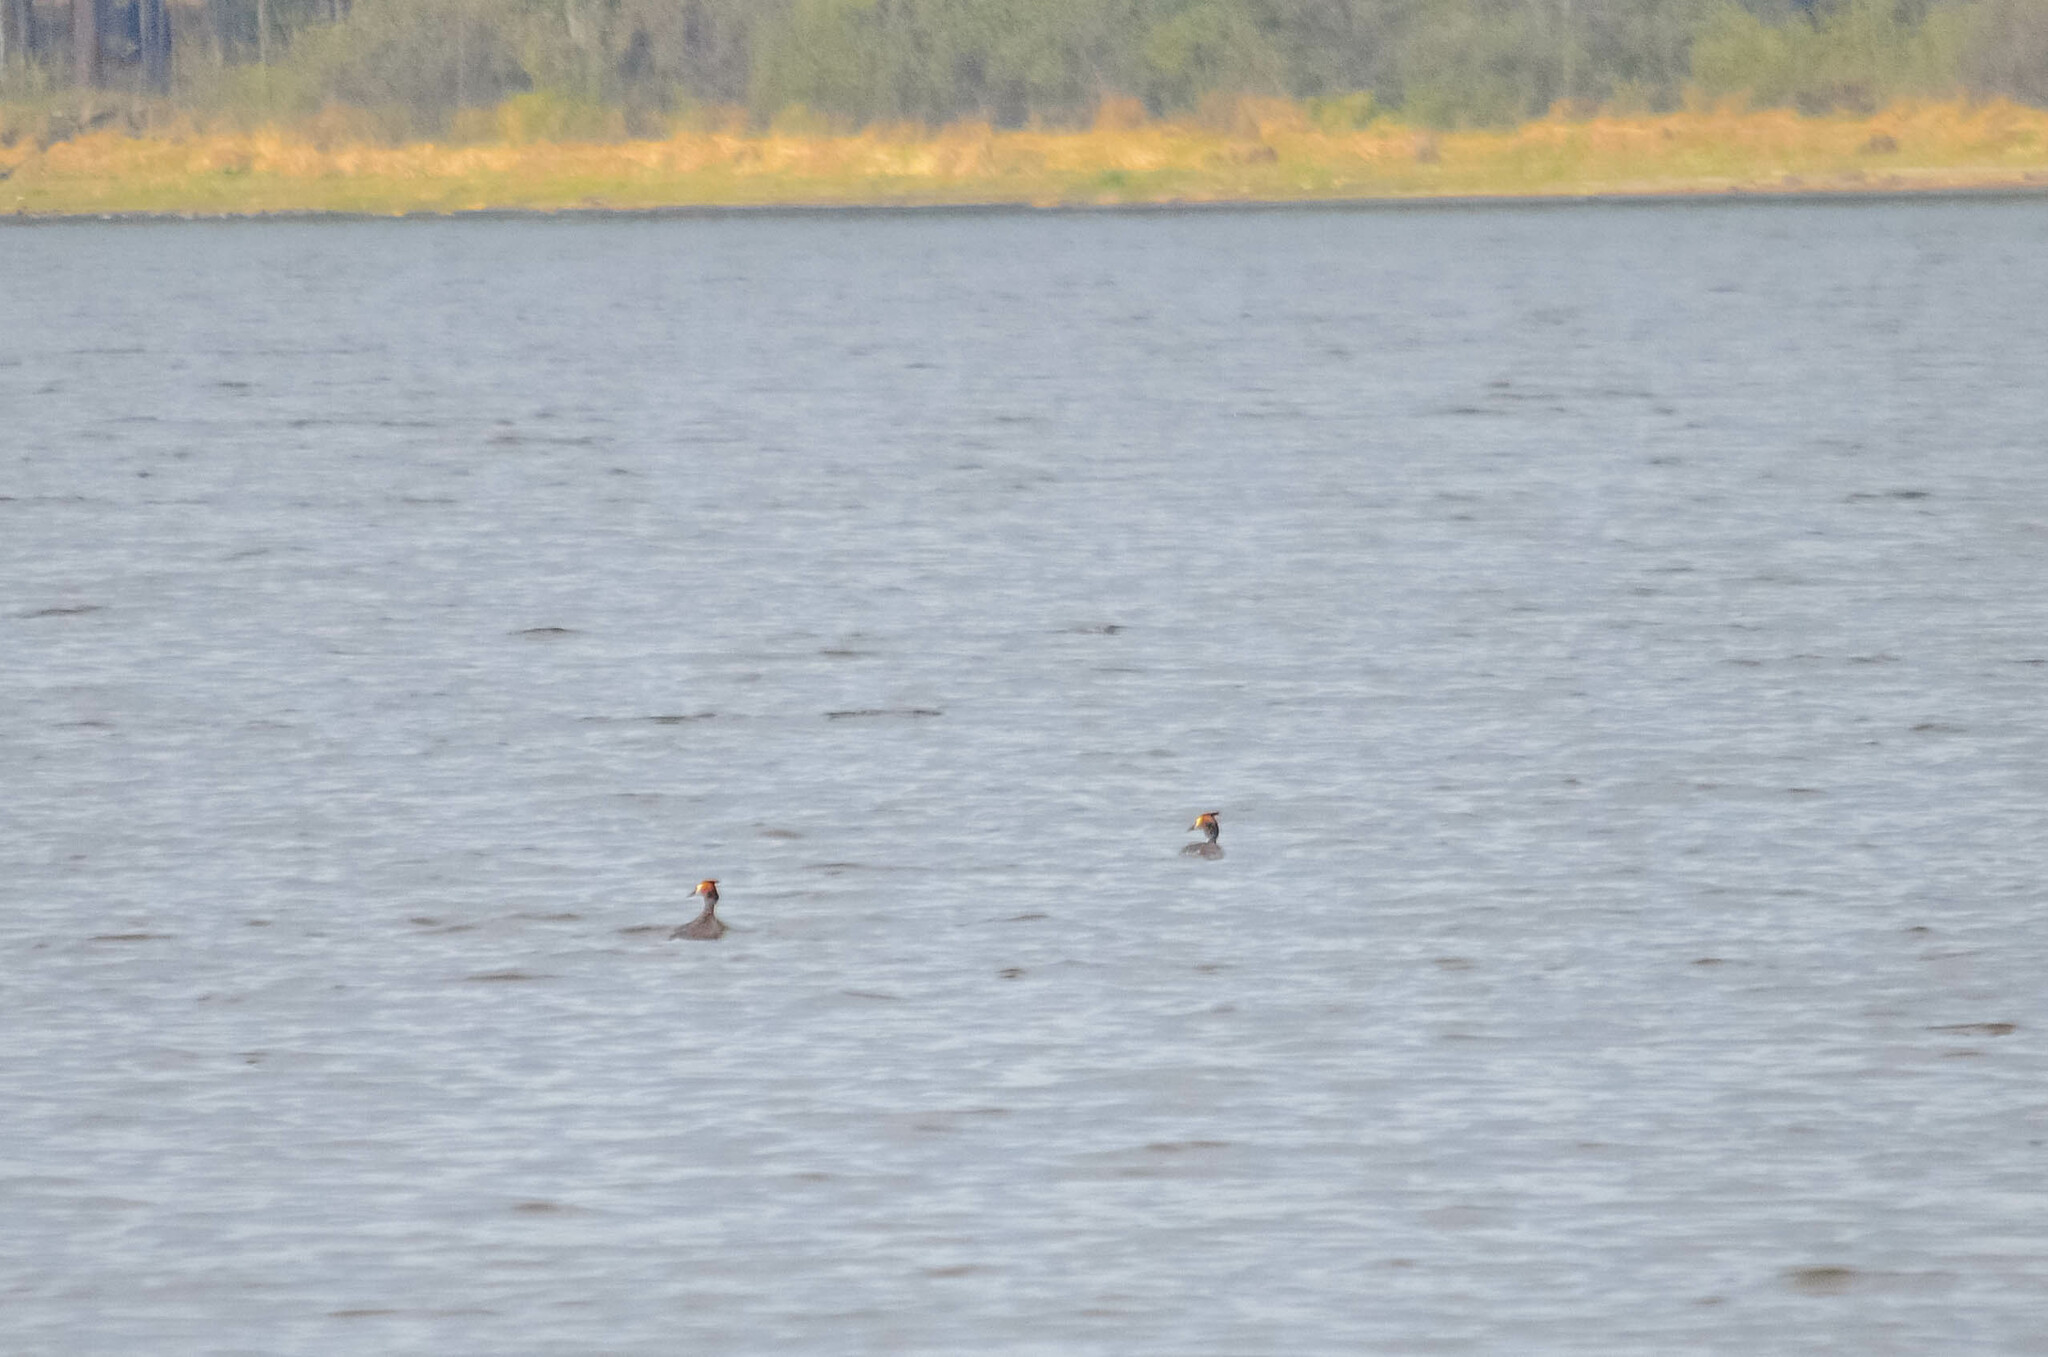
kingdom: Animalia
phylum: Chordata
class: Aves
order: Podicipediformes
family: Podicipedidae
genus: Podiceps
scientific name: Podiceps cristatus
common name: Great crested grebe
